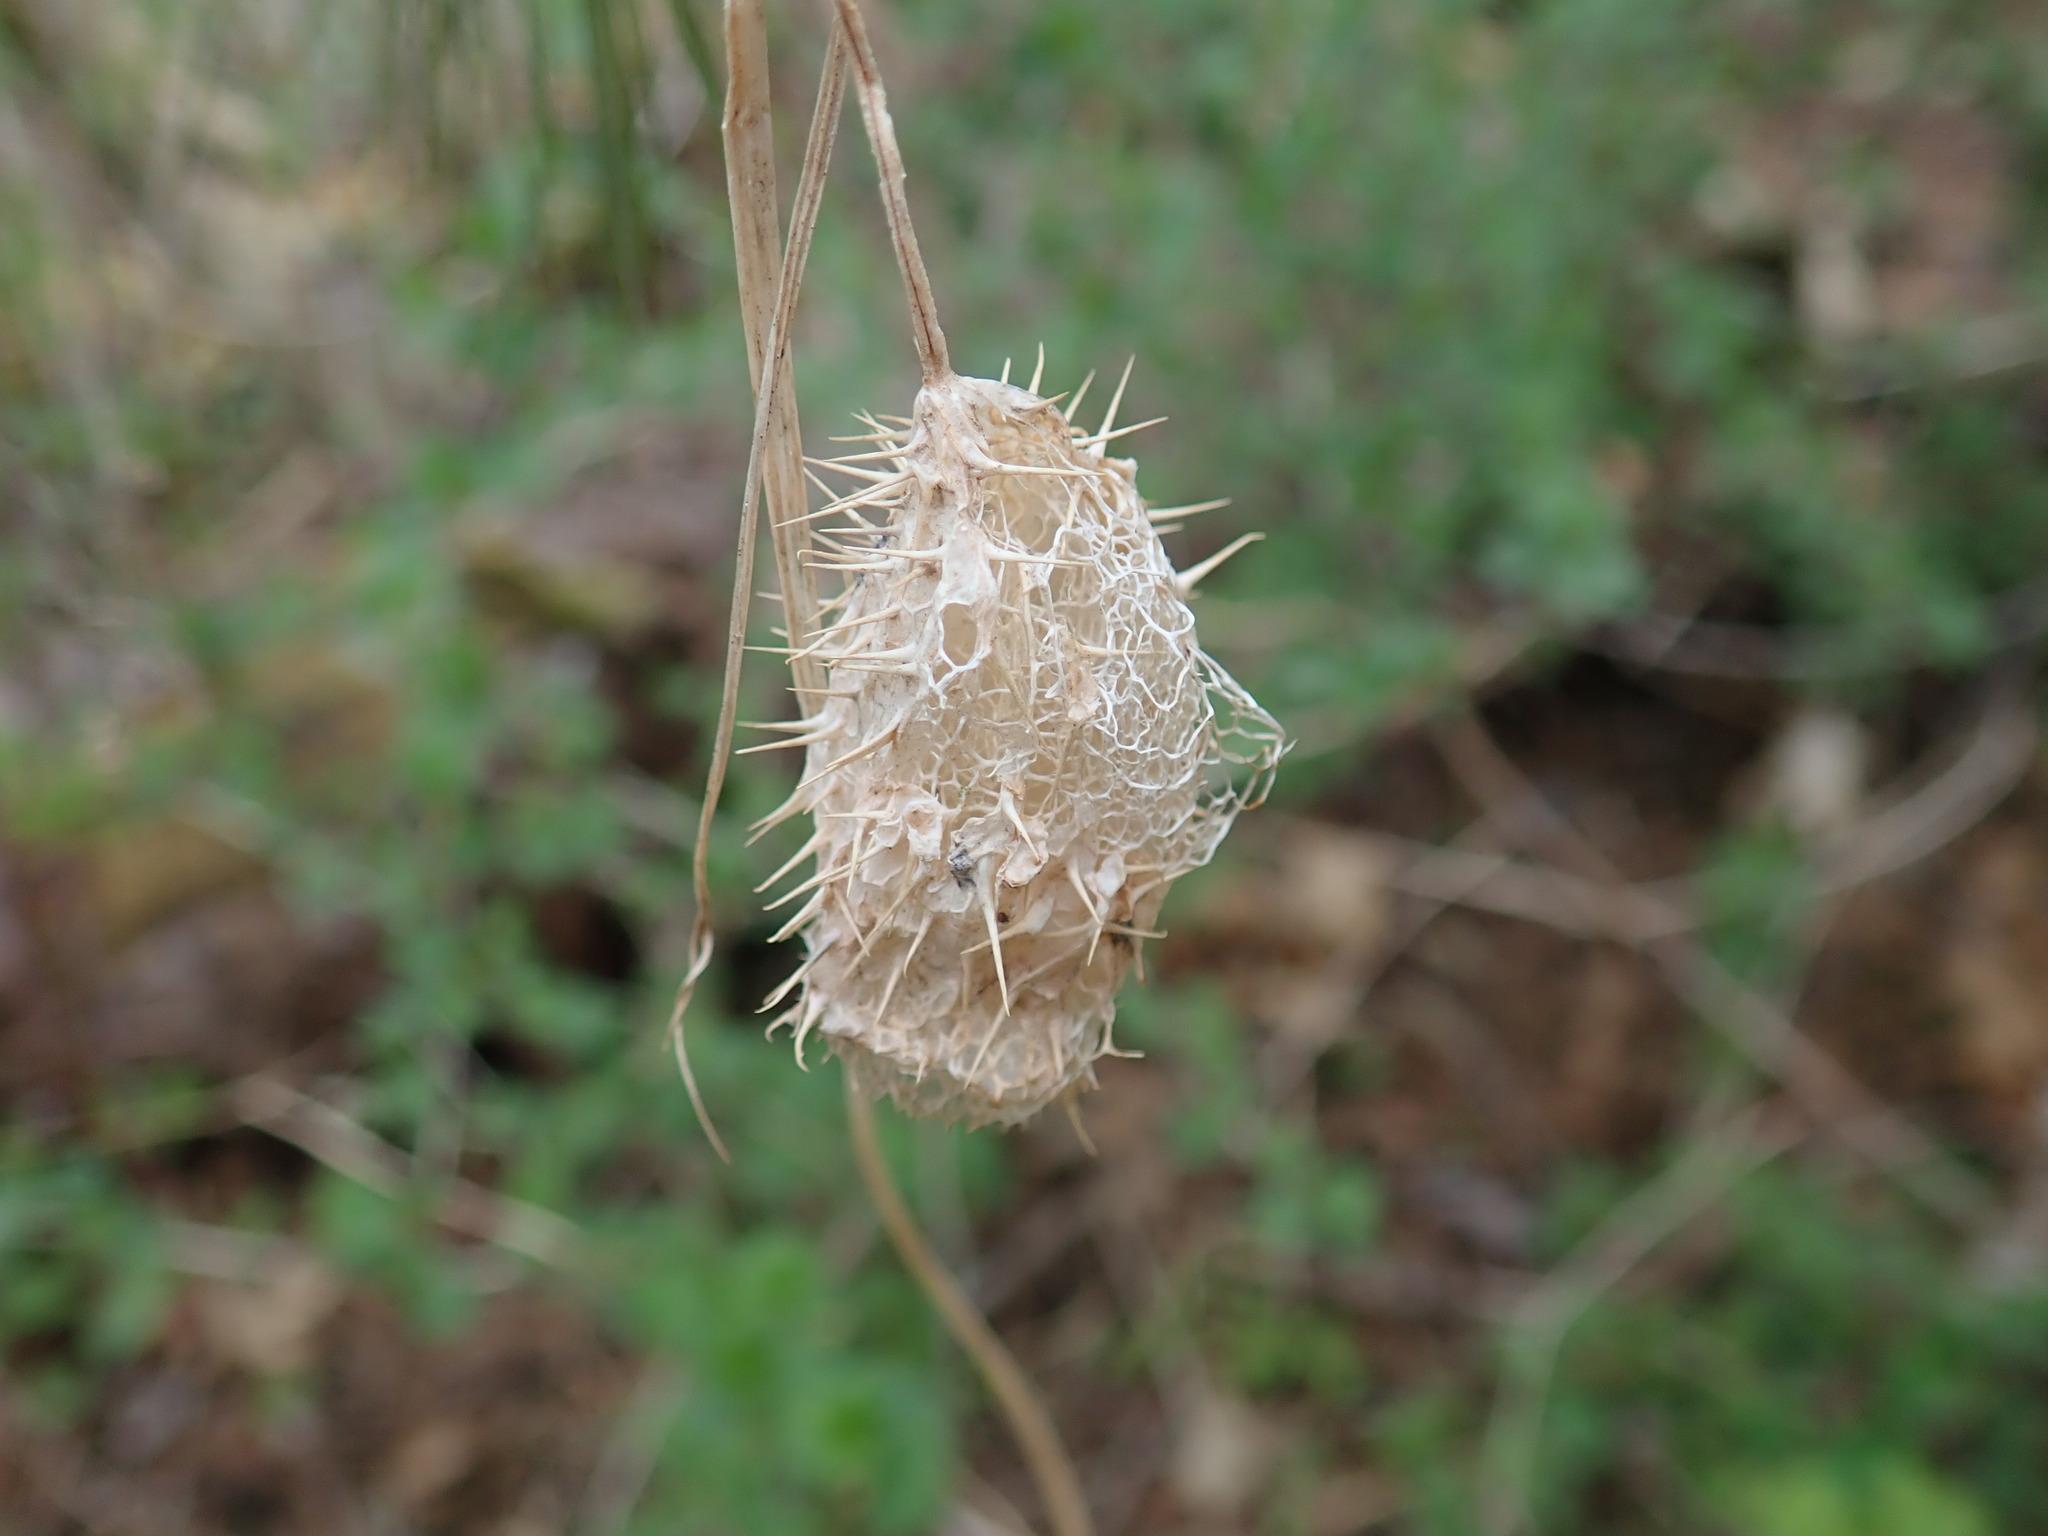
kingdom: Plantae
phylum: Tracheophyta
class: Magnoliopsida
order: Cucurbitales
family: Cucurbitaceae
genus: Echinocystis
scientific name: Echinocystis lobata
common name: Wild cucumber
